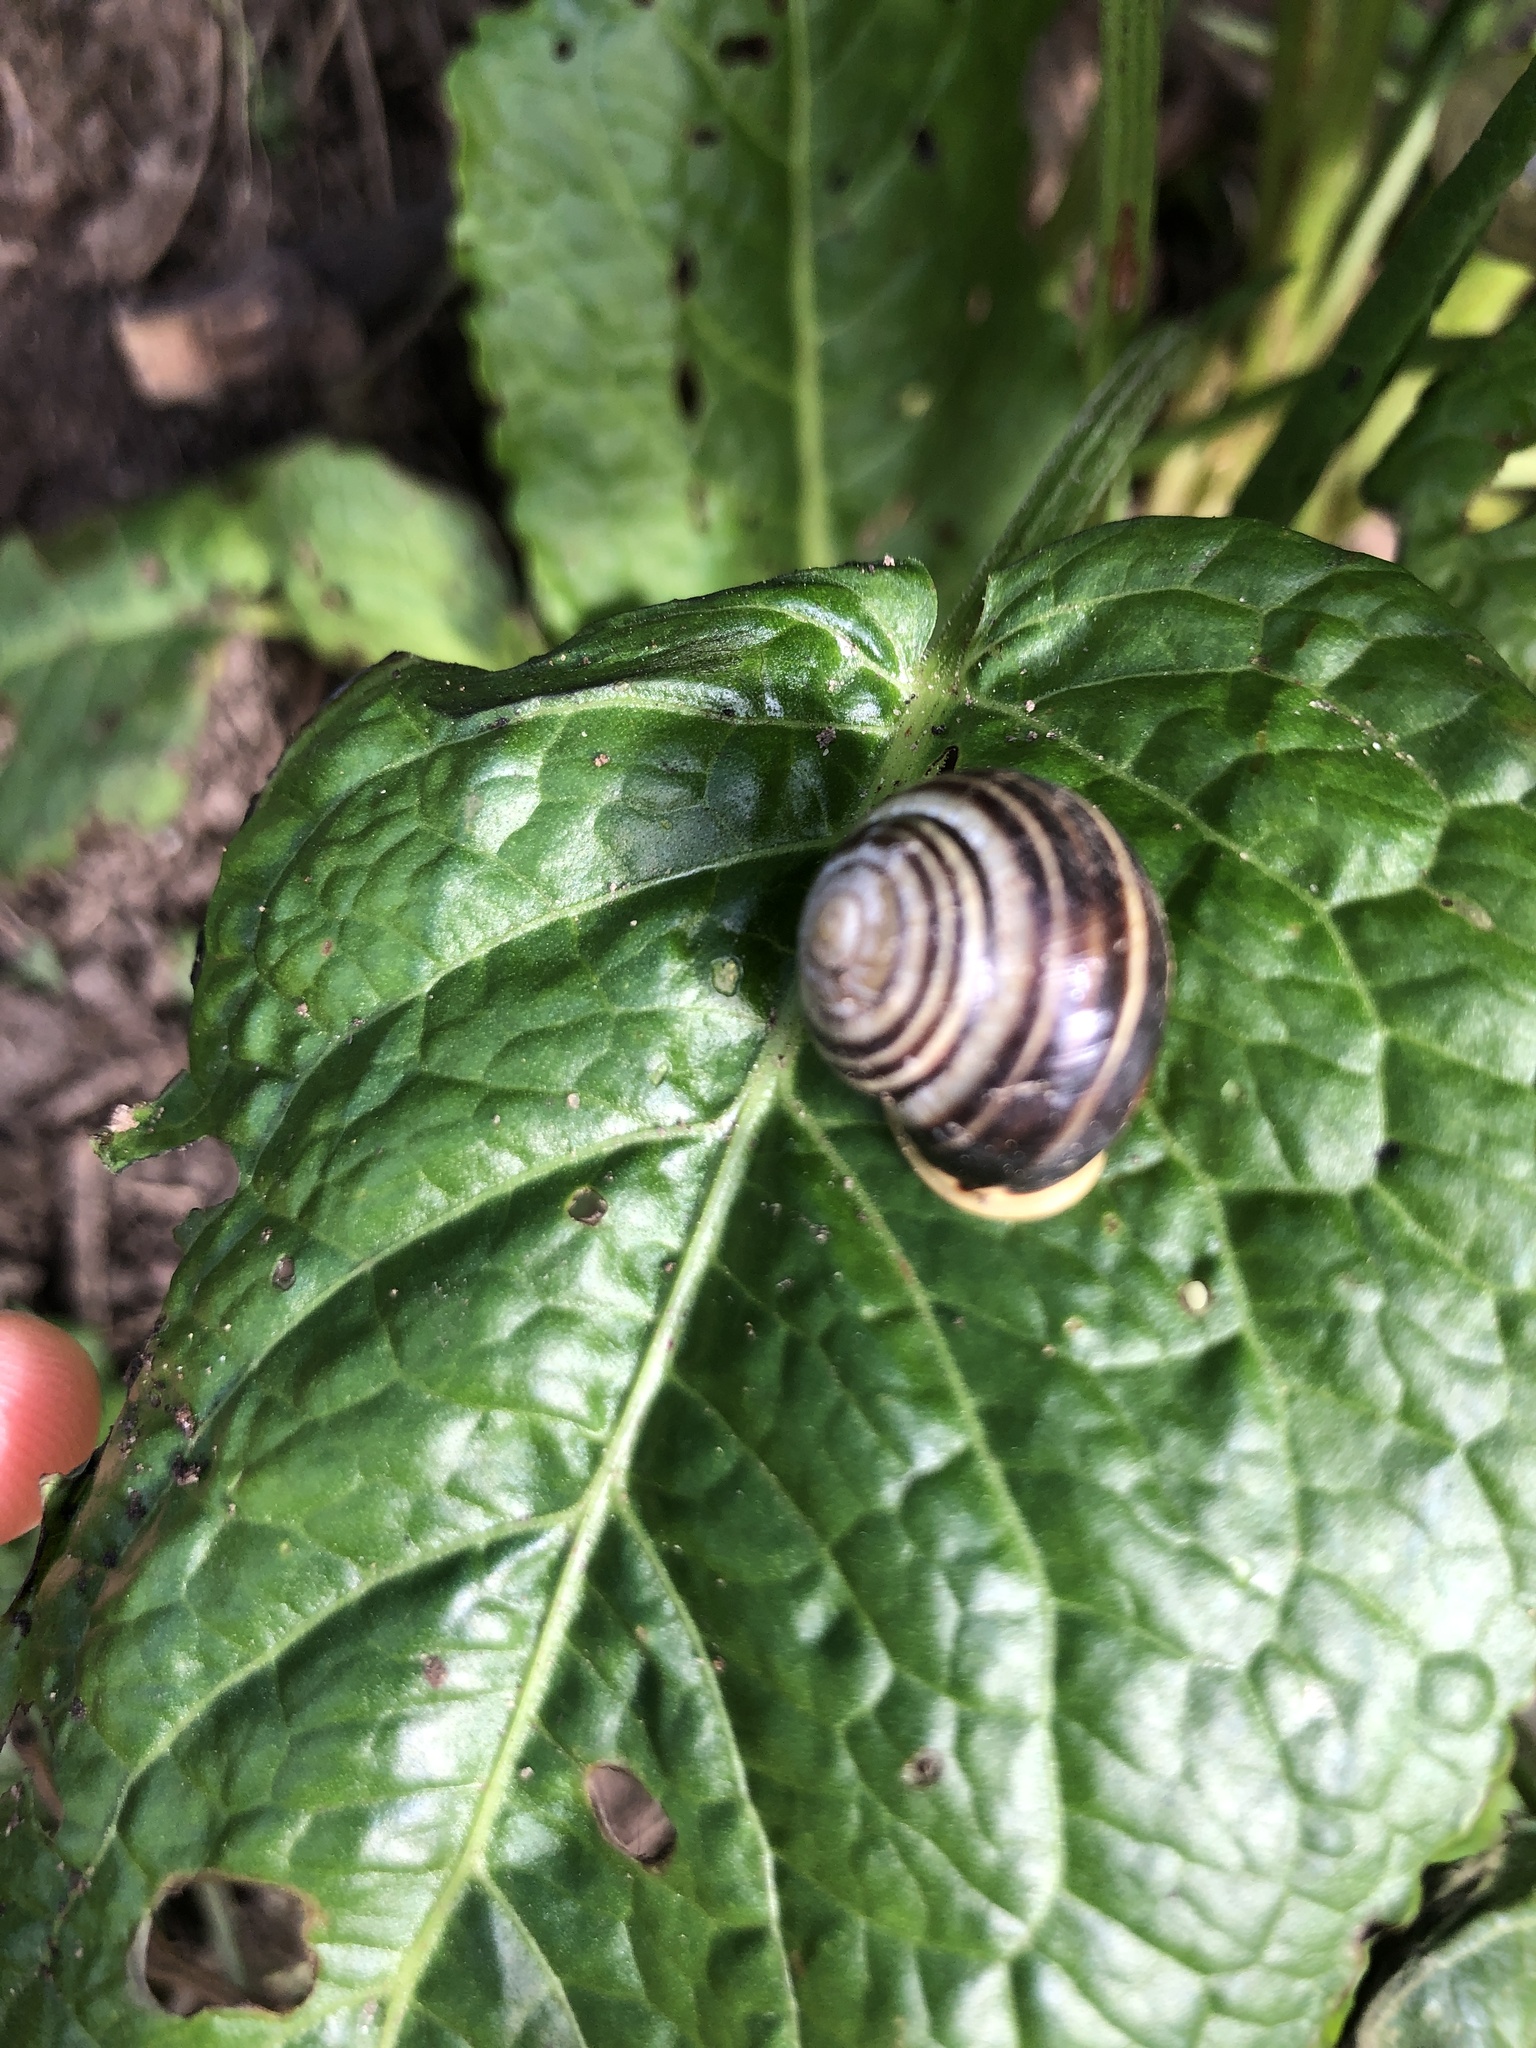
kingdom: Animalia
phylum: Mollusca
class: Gastropoda
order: Stylommatophora
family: Helicidae
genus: Cepaea
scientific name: Cepaea hortensis
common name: White-lip gardensnail
